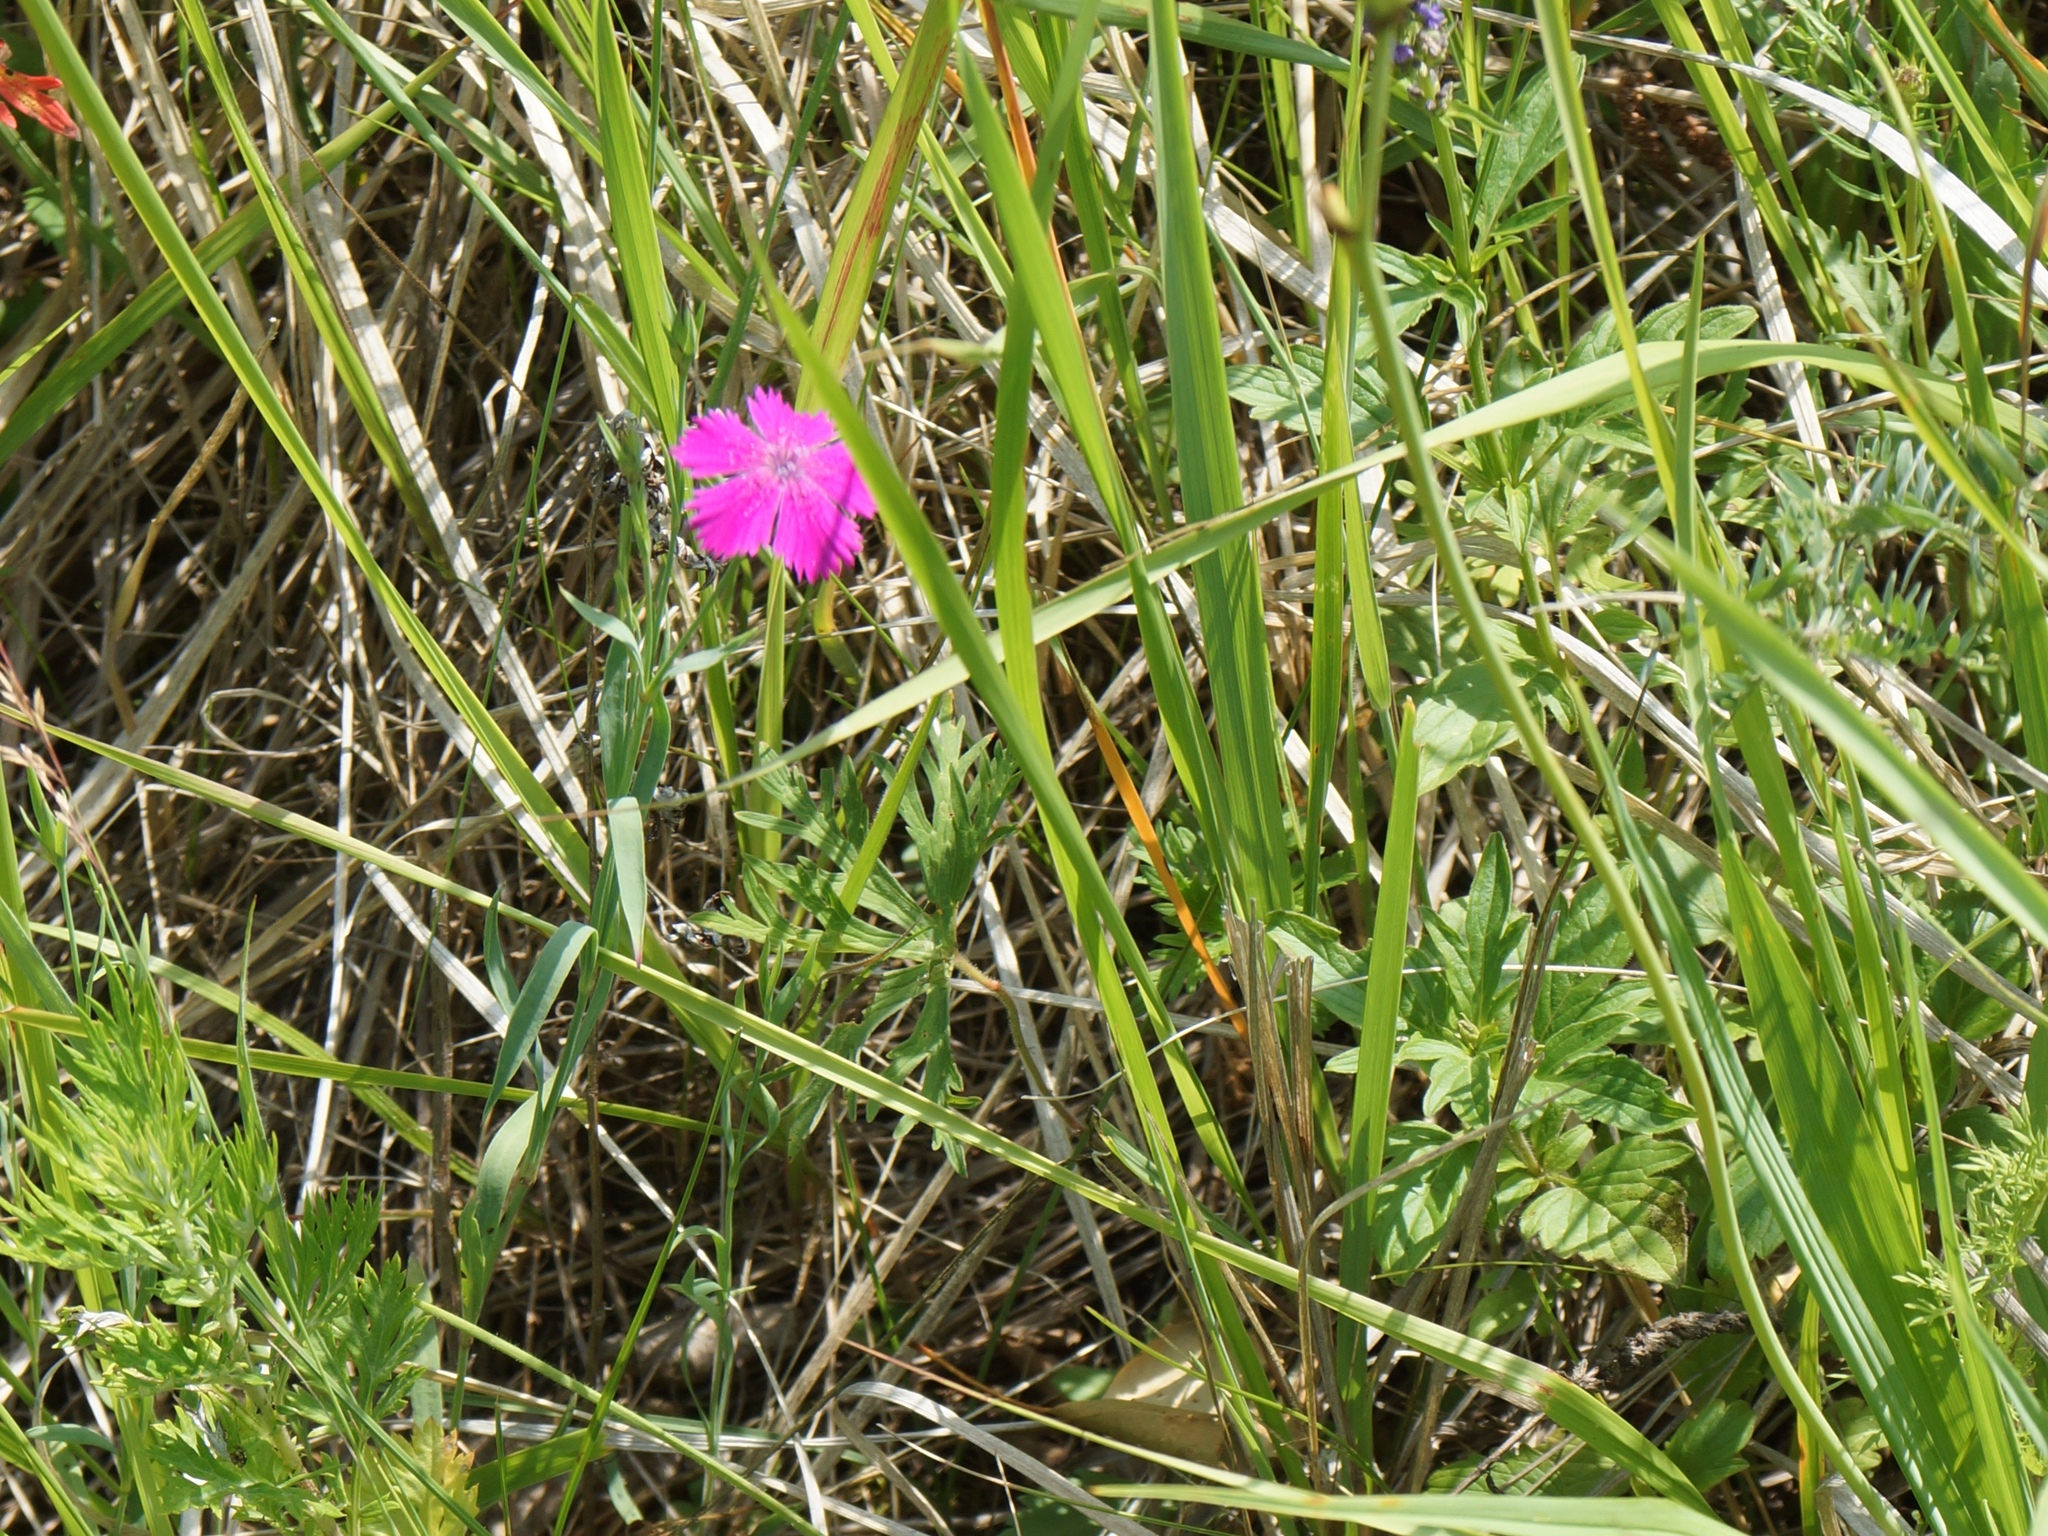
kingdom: Plantae
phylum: Tracheophyta
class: Magnoliopsida
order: Caryophyllales
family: Caryophyllaceae
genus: Dianthus
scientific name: Dianthus chinensis
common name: Rainbow pink
